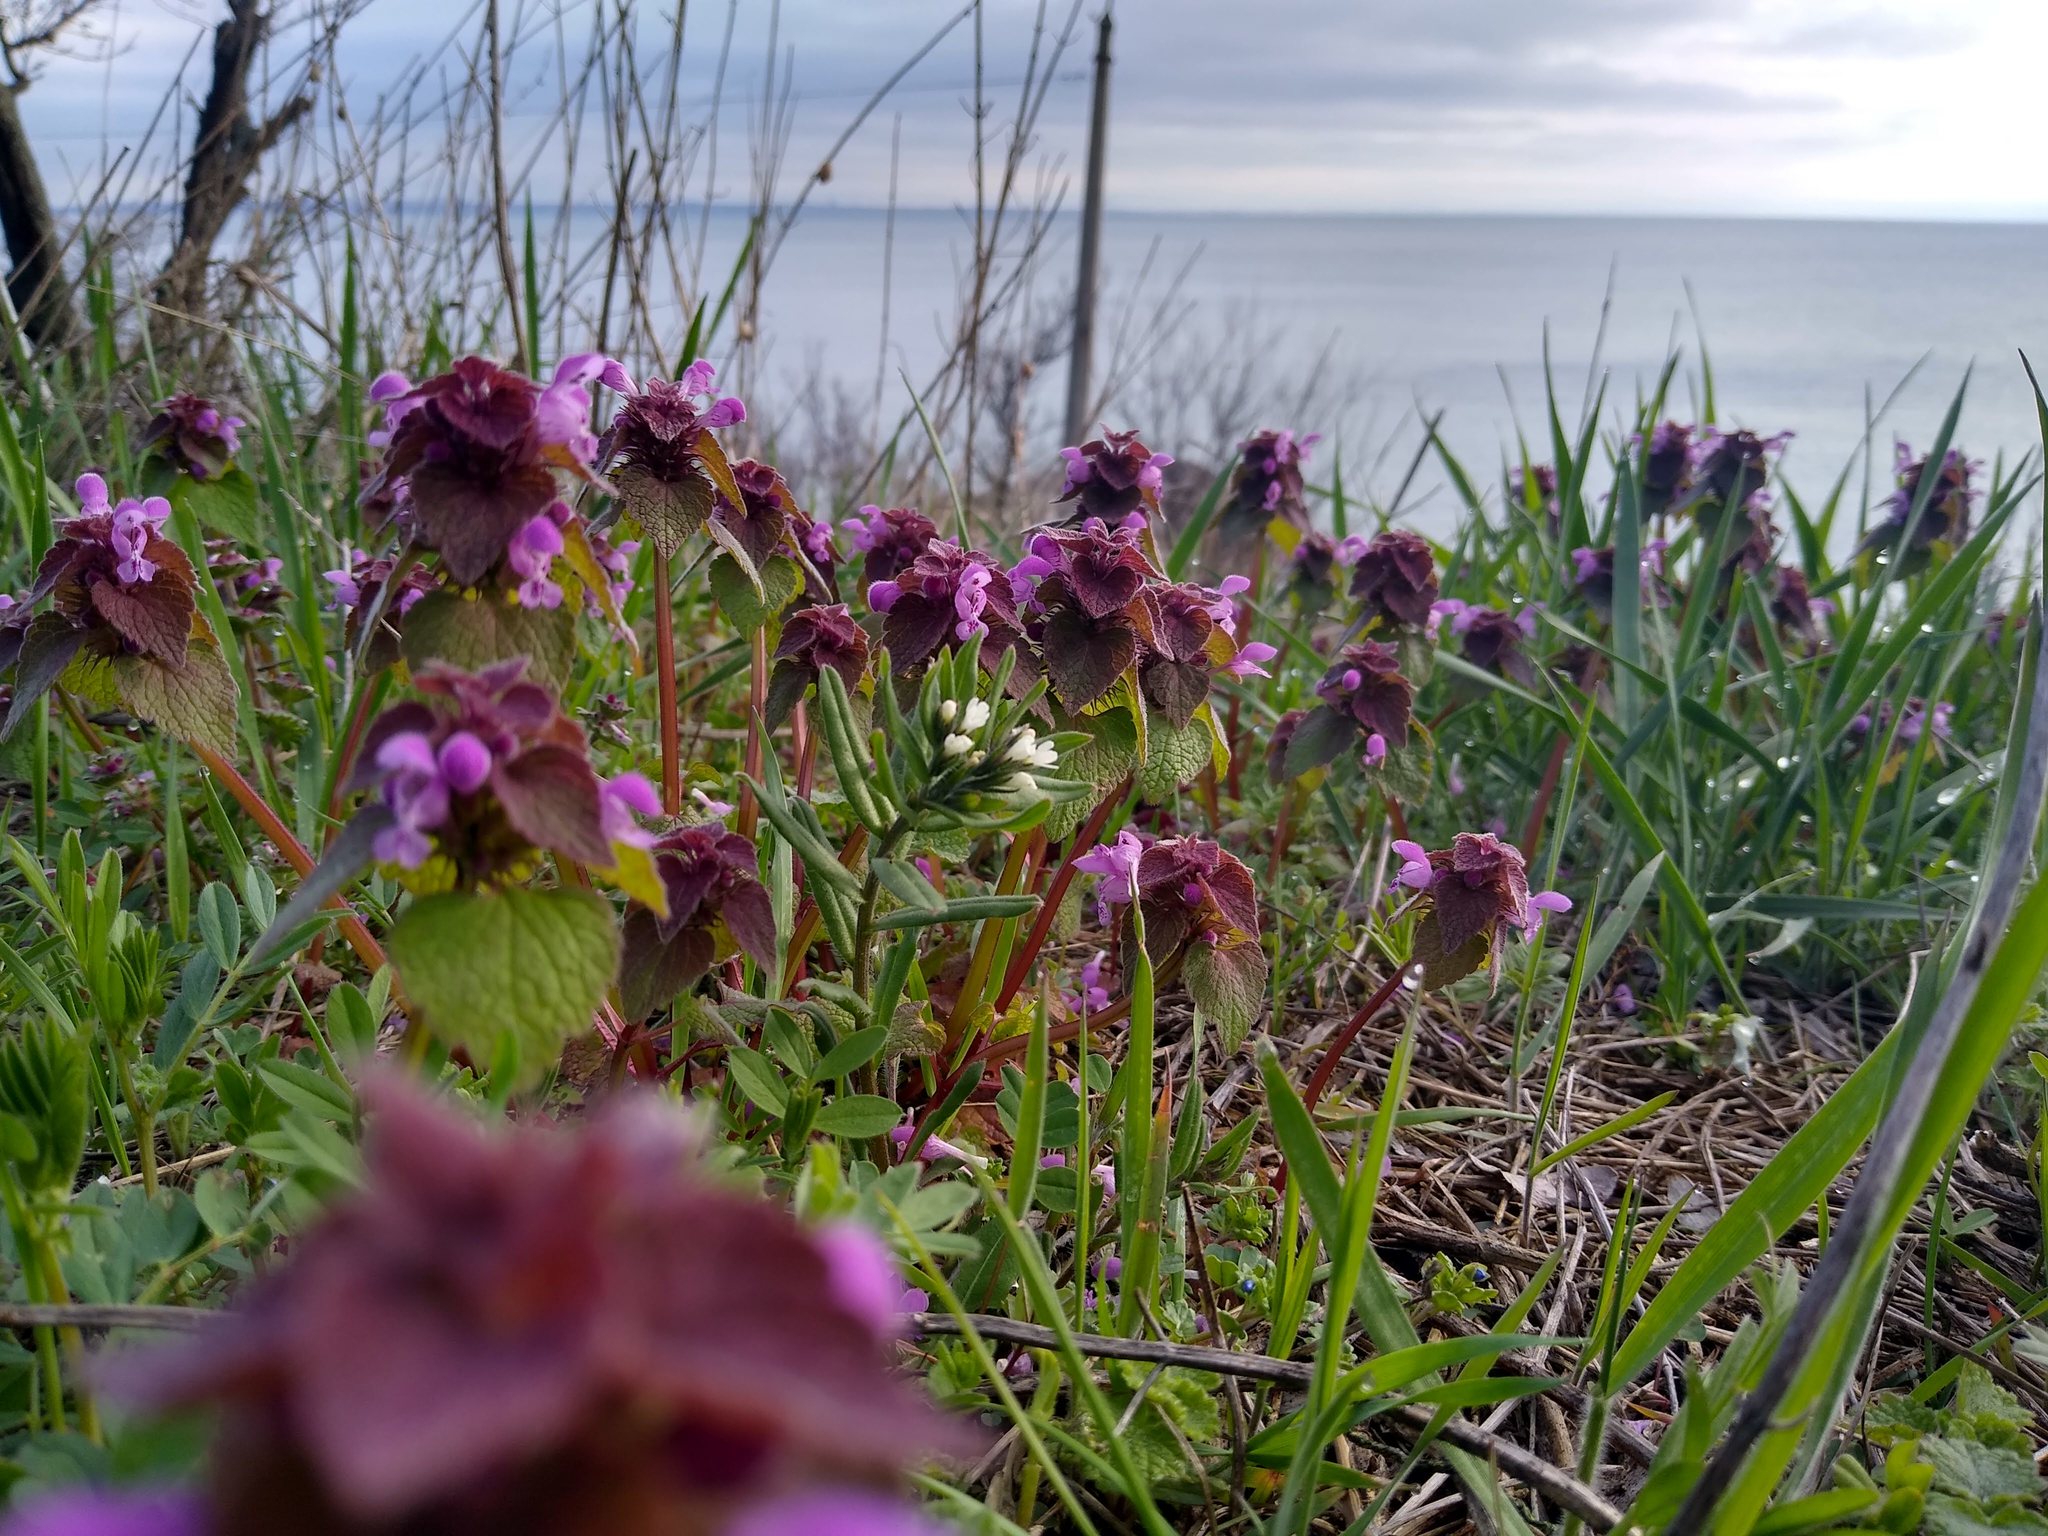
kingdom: Plantae
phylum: Tracheophyta
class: Magnoliopsida
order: Lamiales
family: Lamiaceae
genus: Lamium
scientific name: Lamium purpureum
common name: Red dead-nettle
